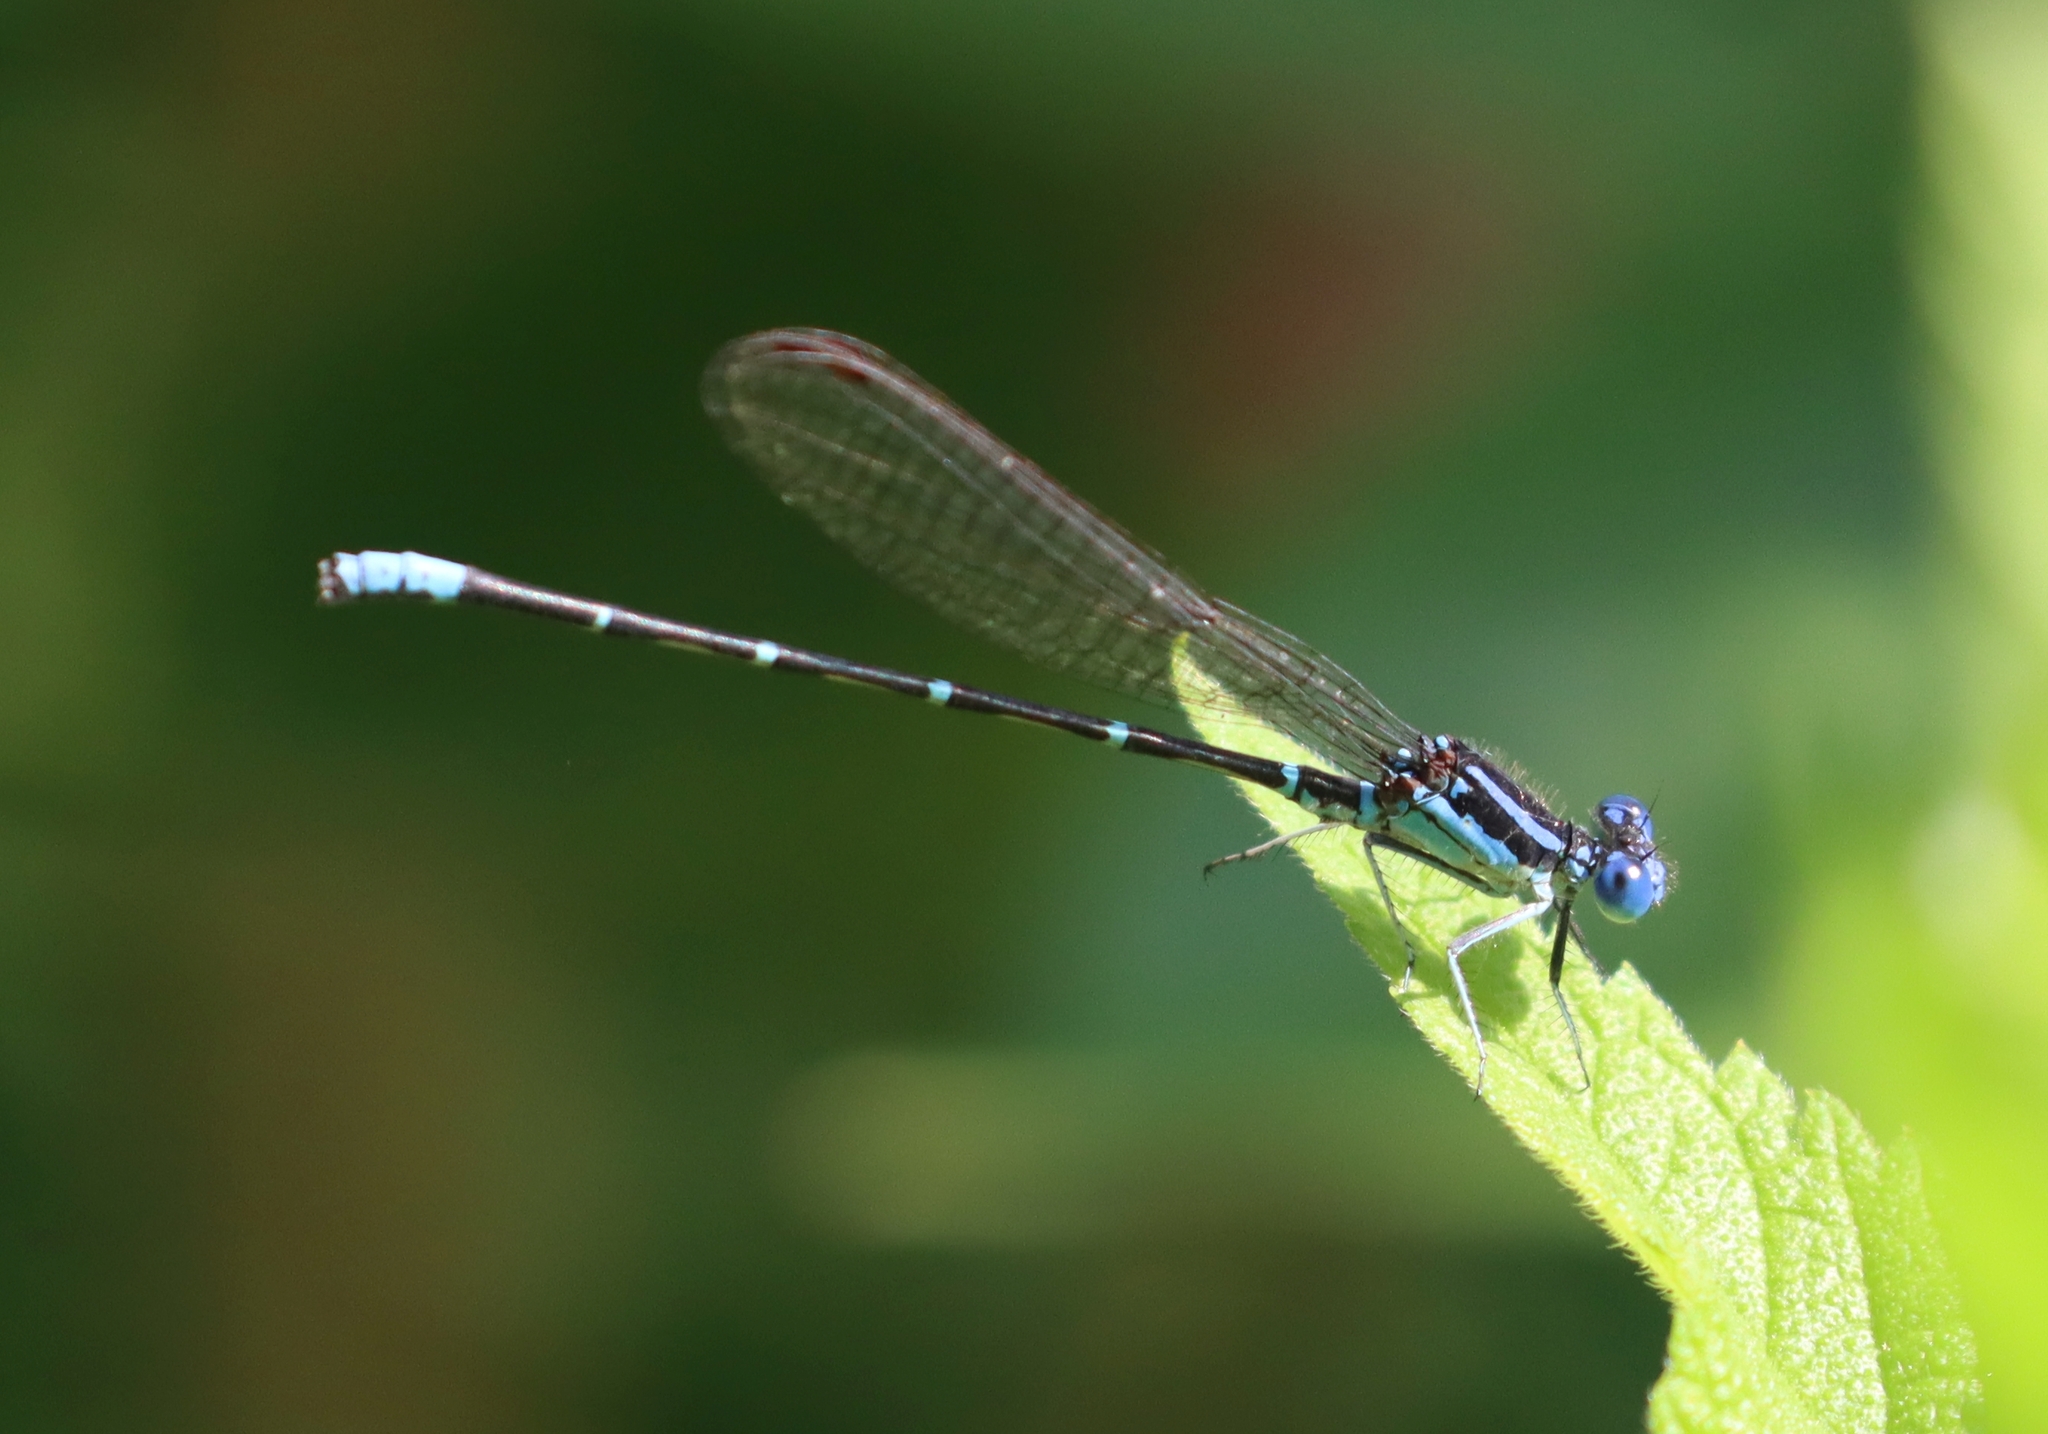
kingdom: Animalia
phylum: Arthropoda
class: Insecta
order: Odonata
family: Coenagrionidae
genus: Argia
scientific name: Argia sedula
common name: Blue-ringed dancer
